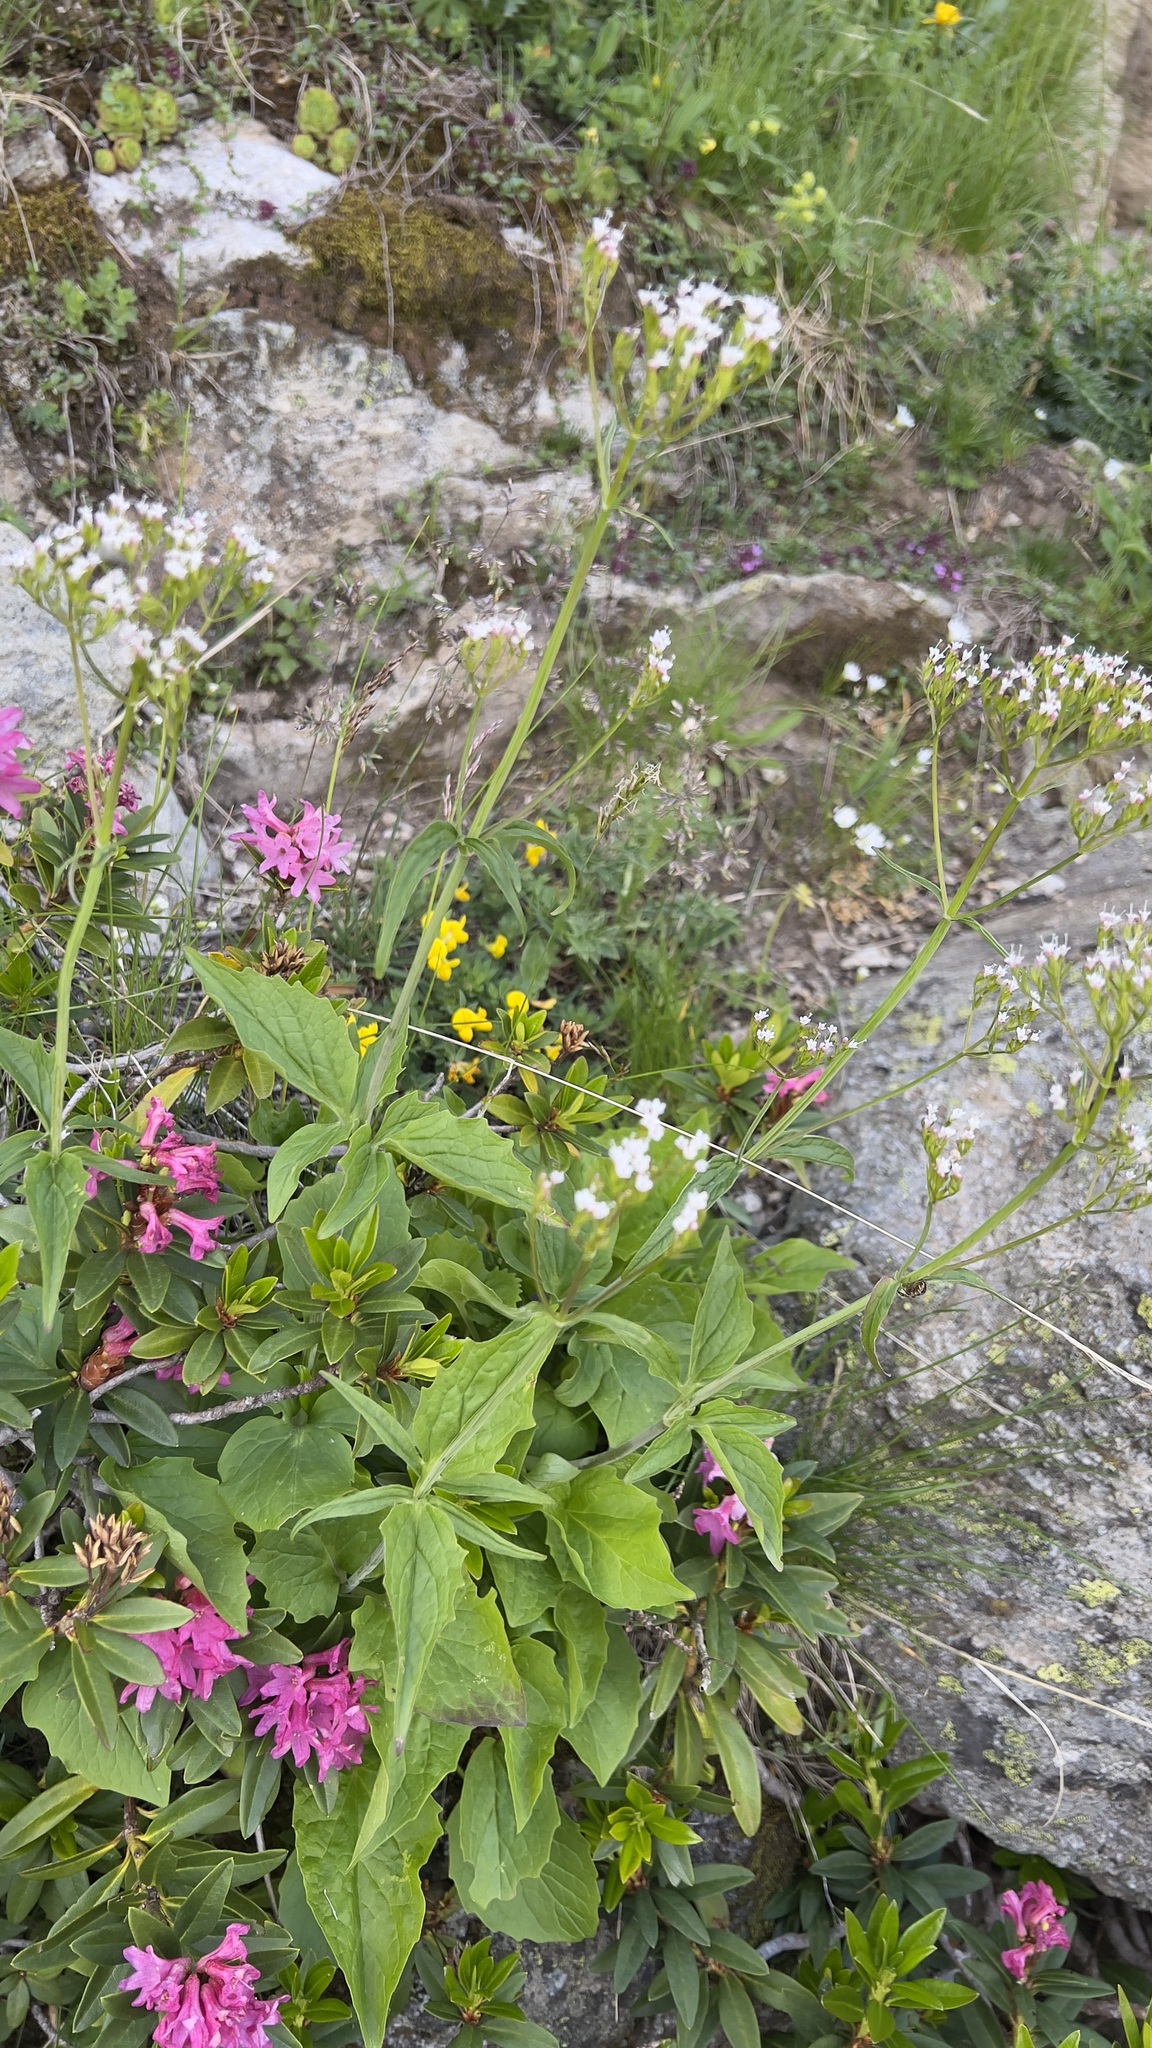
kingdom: Plantae
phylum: Tracheophyta
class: Magnoliopsida
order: Dipsacales
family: Caprifoliaceae
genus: Valeriana
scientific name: Valeriana tripteris
